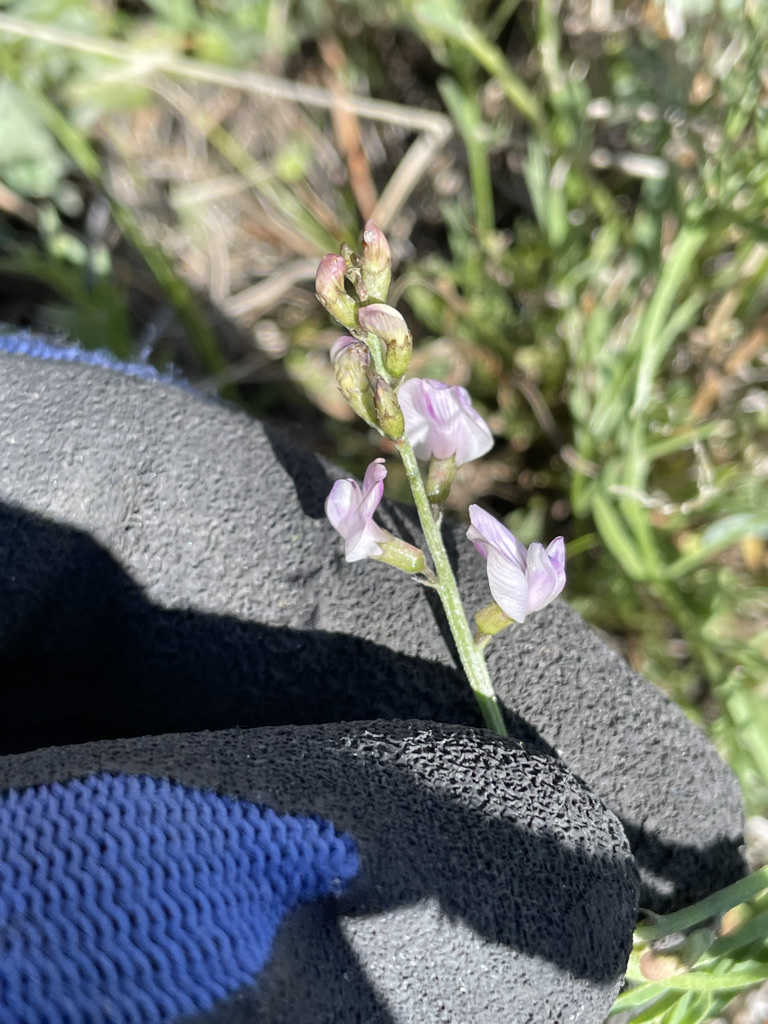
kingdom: Plantae
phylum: Tracheophyta
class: Magnoliopsida
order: Fabales
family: Fabaceae
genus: Astragalus
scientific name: Astragalus miser
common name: Timber milkvetch
